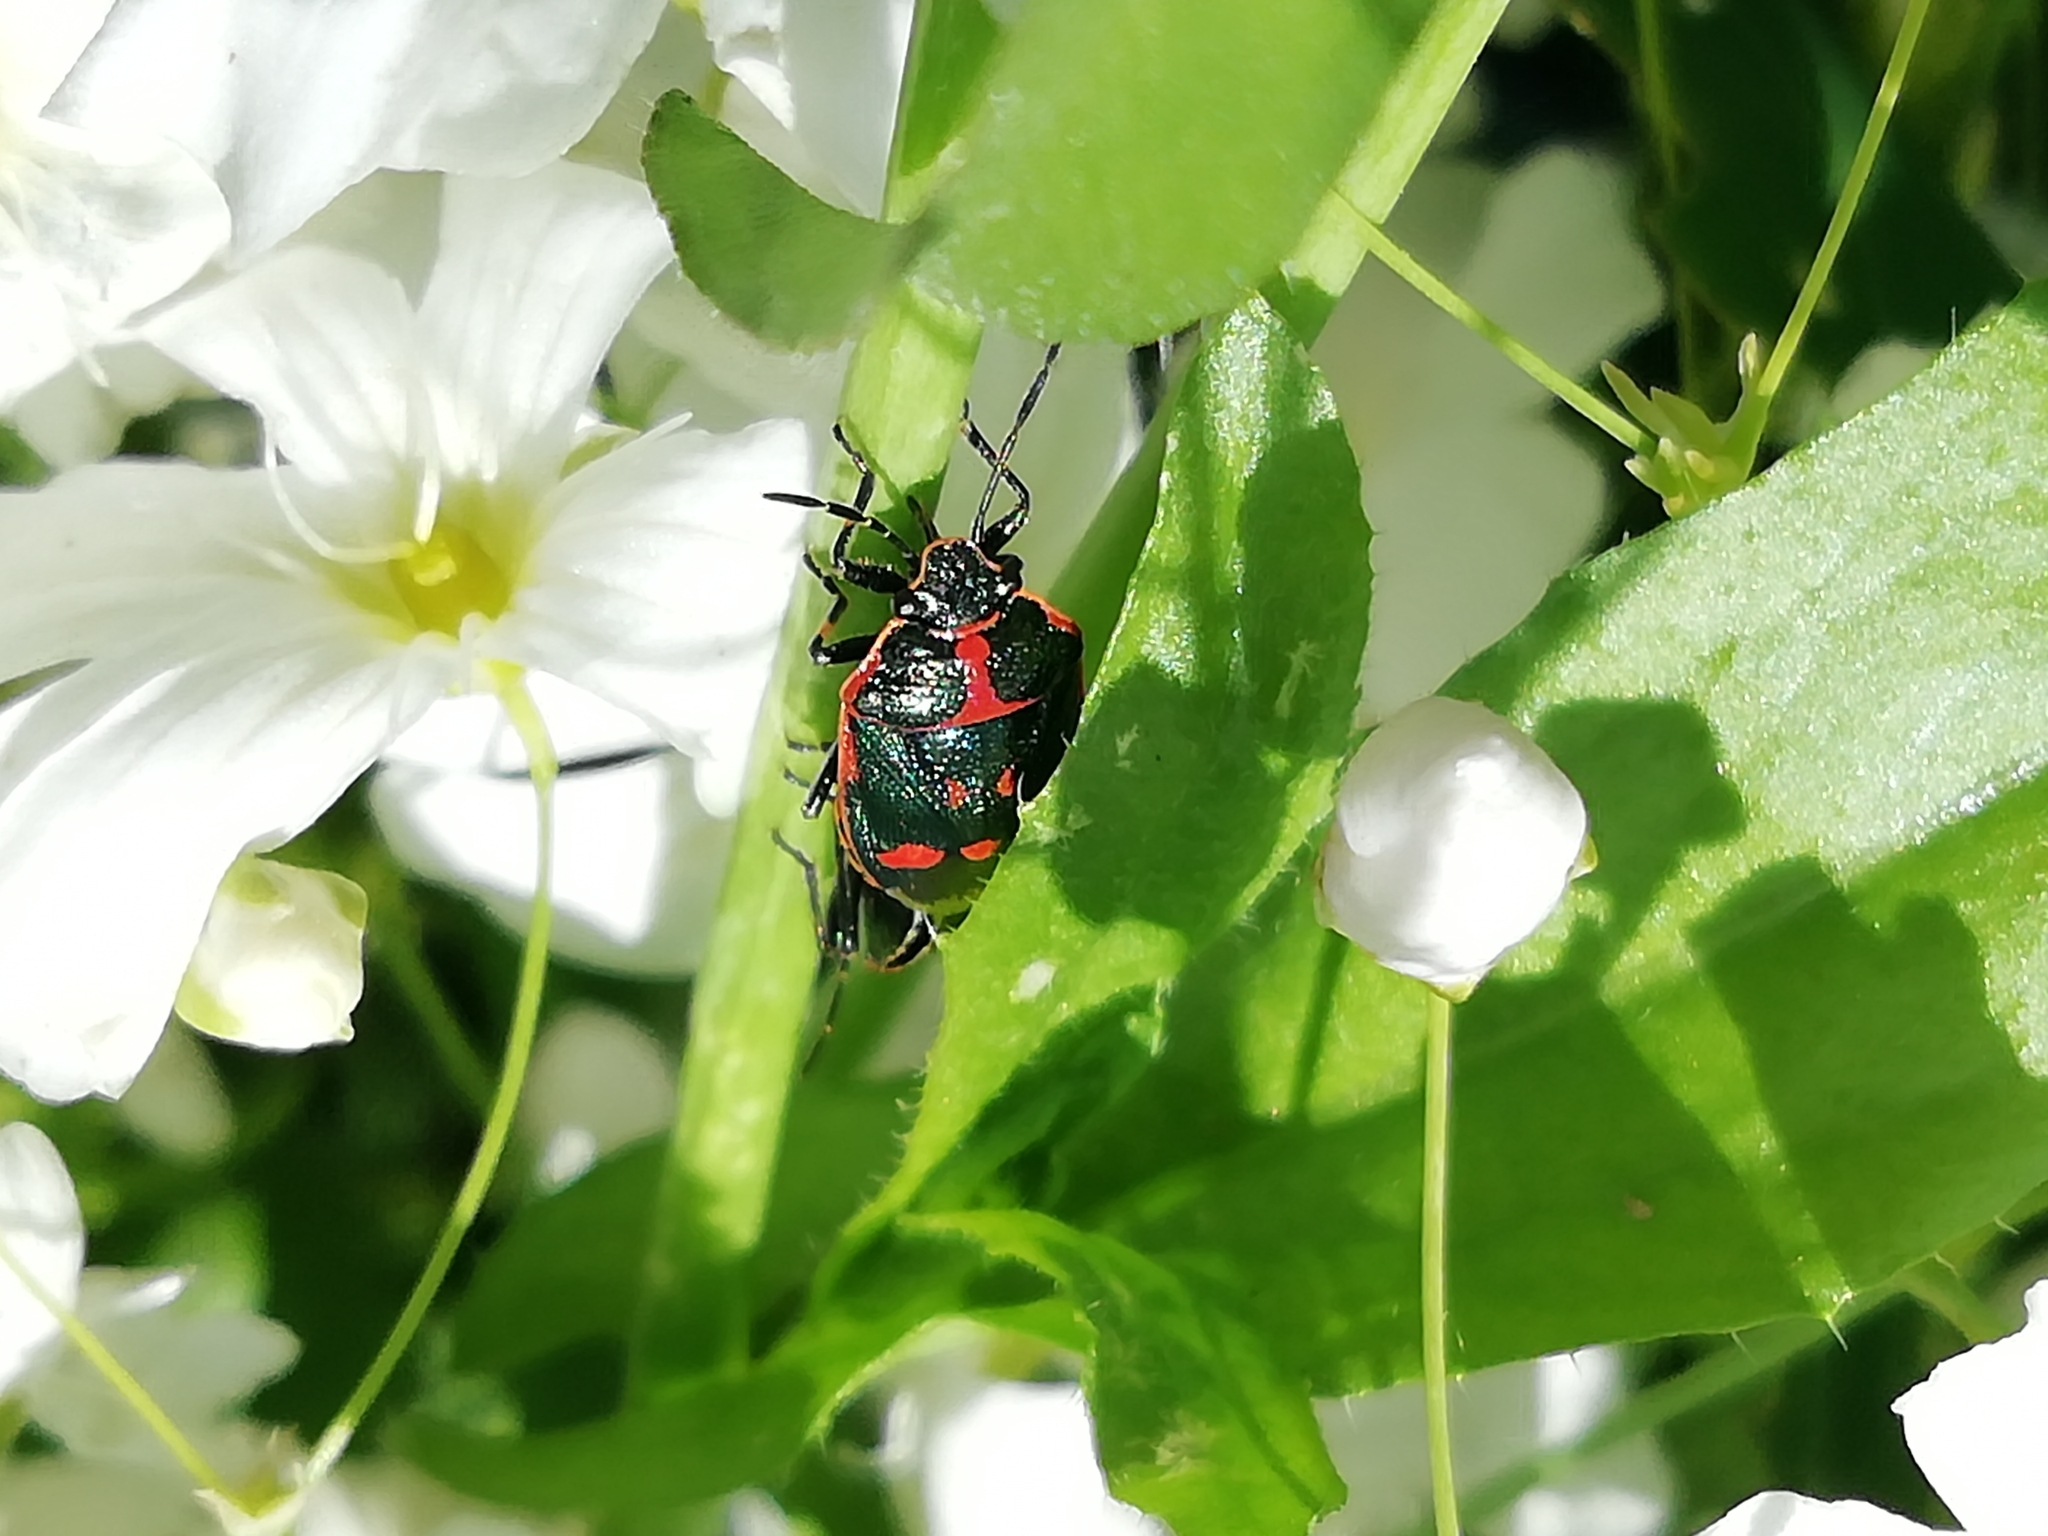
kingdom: Animalia
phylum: Arthropoda
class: Insecta
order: Hemiptera
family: Pentatomidae
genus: Eurydema
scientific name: Eurydema oleracea
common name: Cabbage bug
